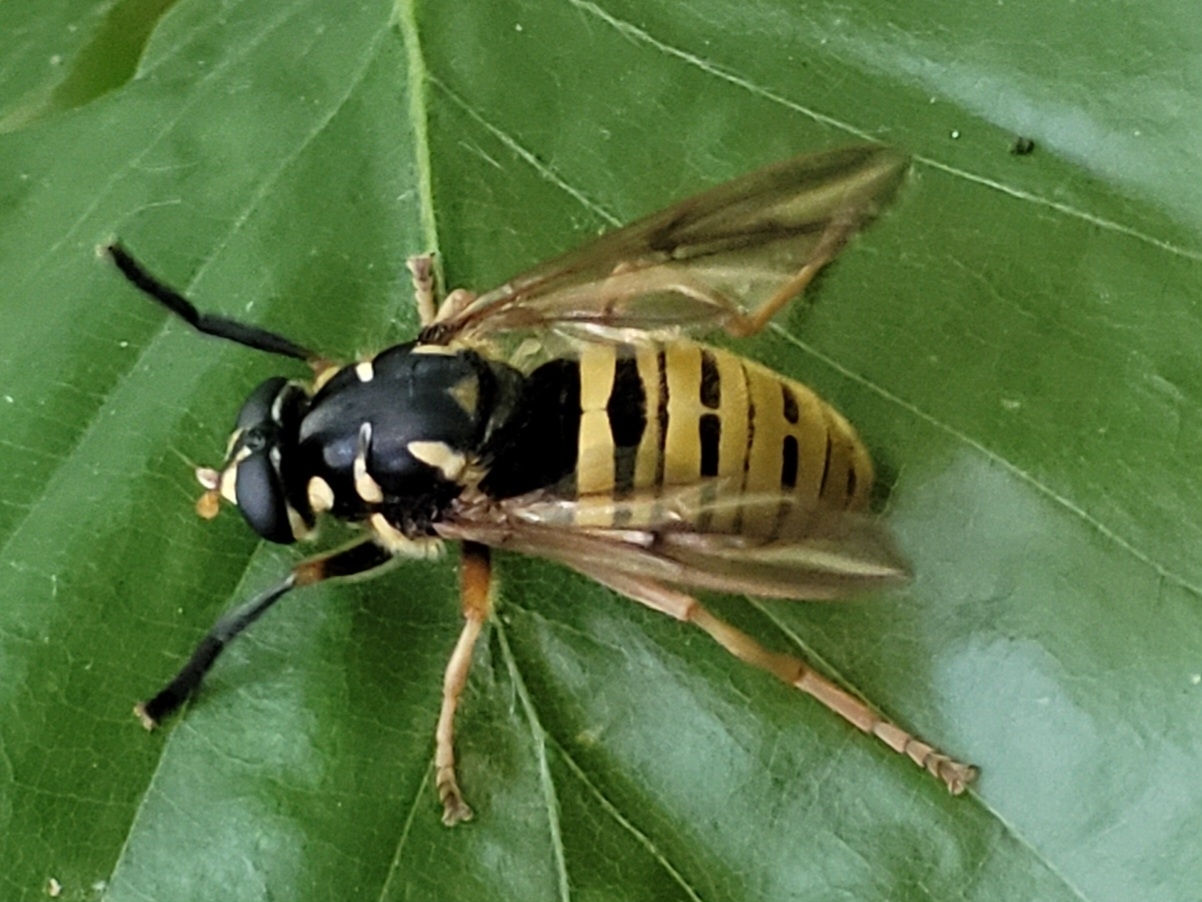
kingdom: Animalia
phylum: Arthropoda
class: Insecta
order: Diptera
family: Syrphidae
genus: Temnostoma
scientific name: Temnostoma vespiforme
